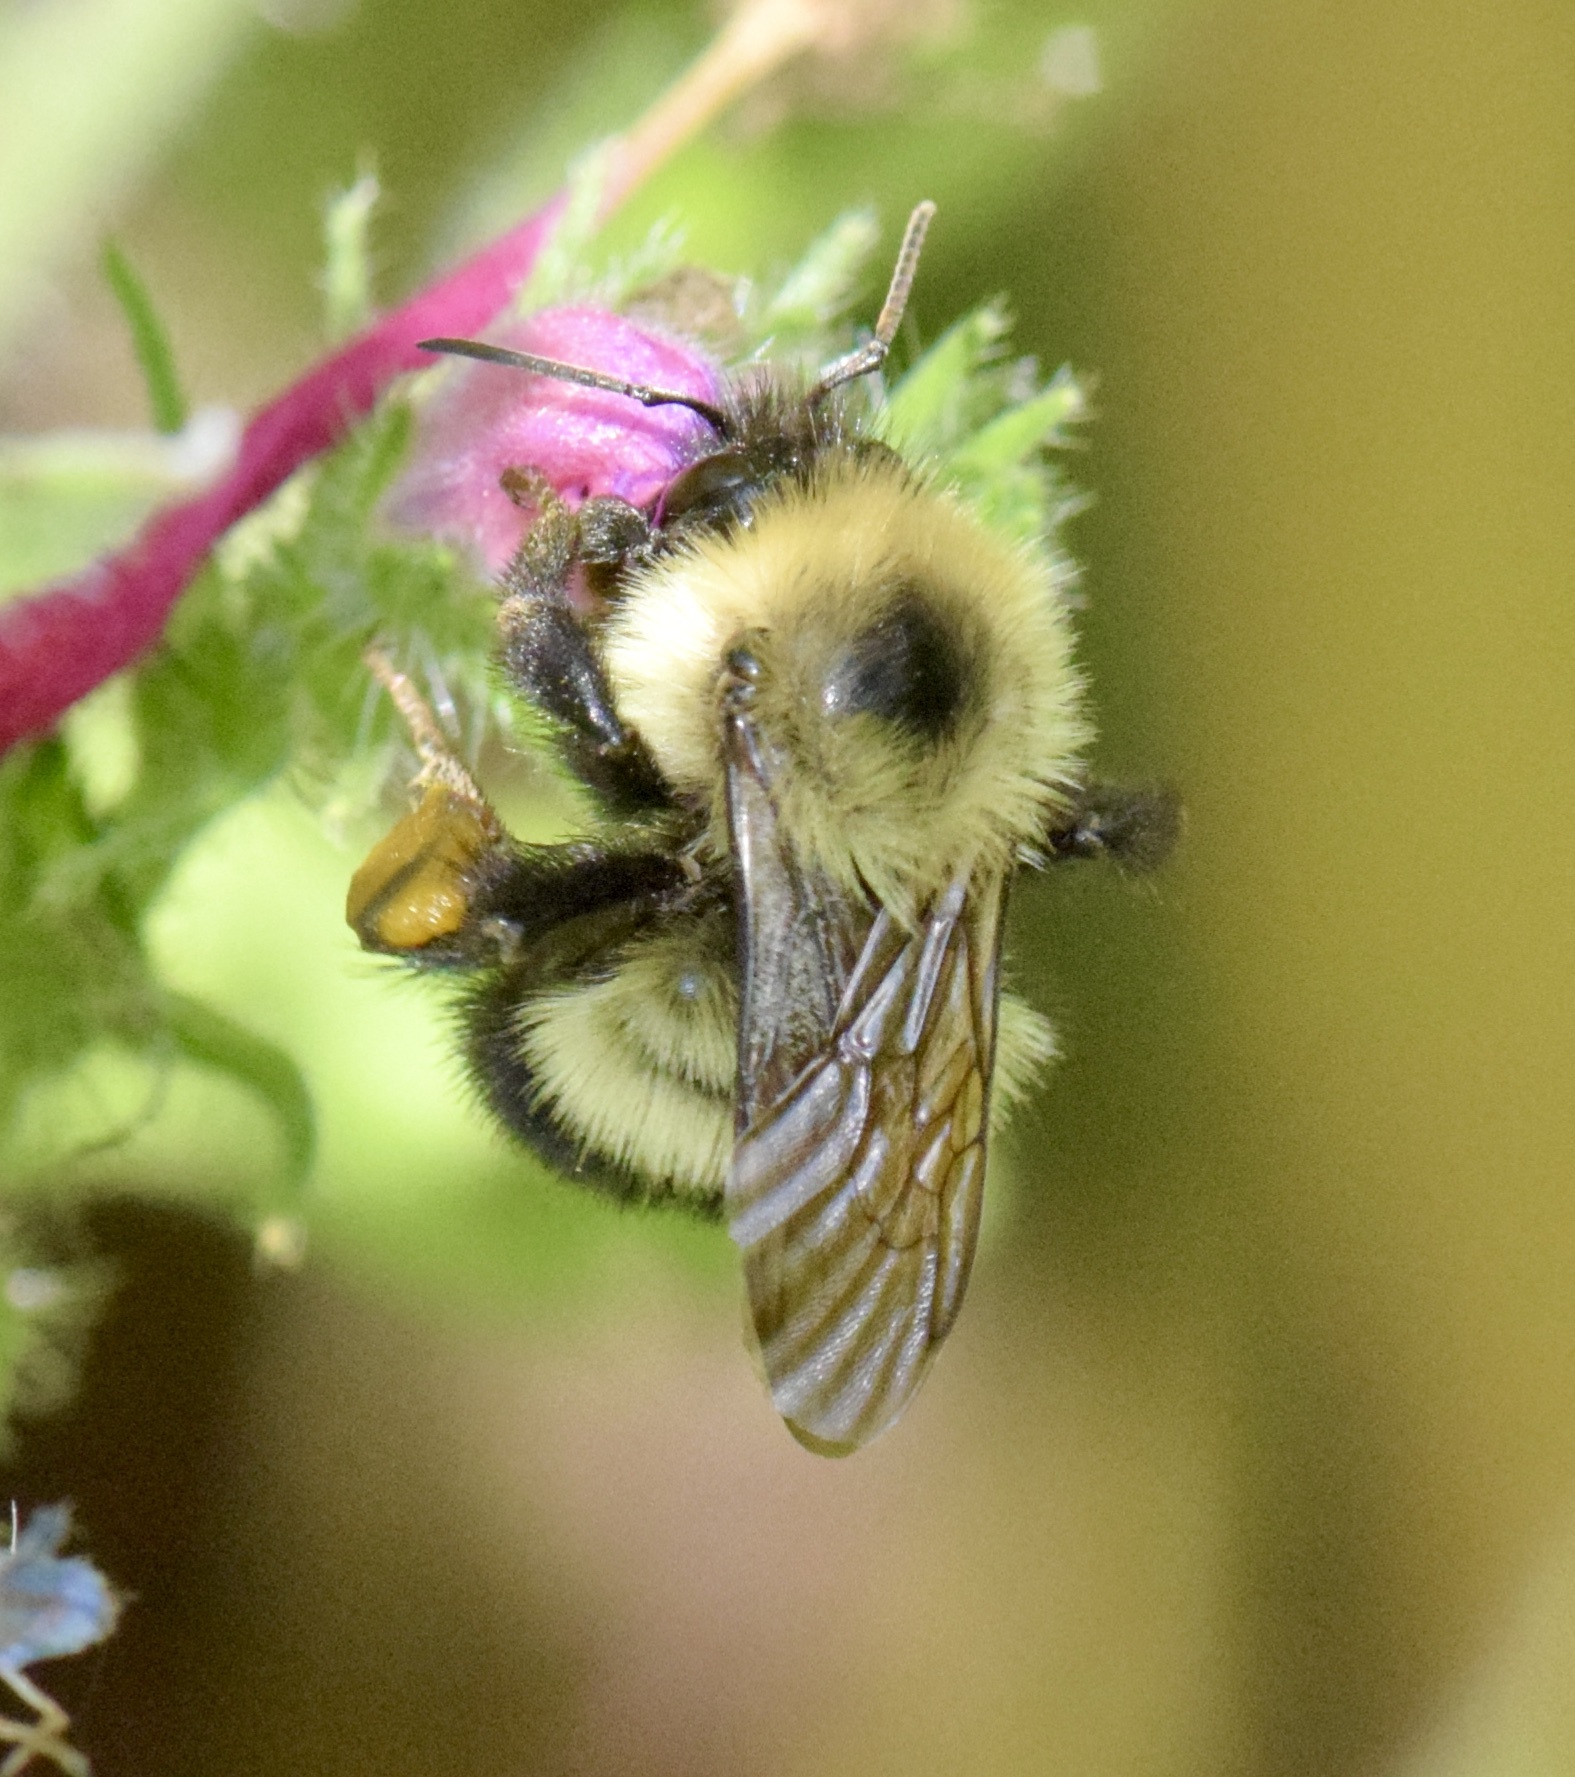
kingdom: Animalia
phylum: Arthropoda
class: Insecta
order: Hymenoptera
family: Apidae
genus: Pyrobombus
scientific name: Pyrobombus
